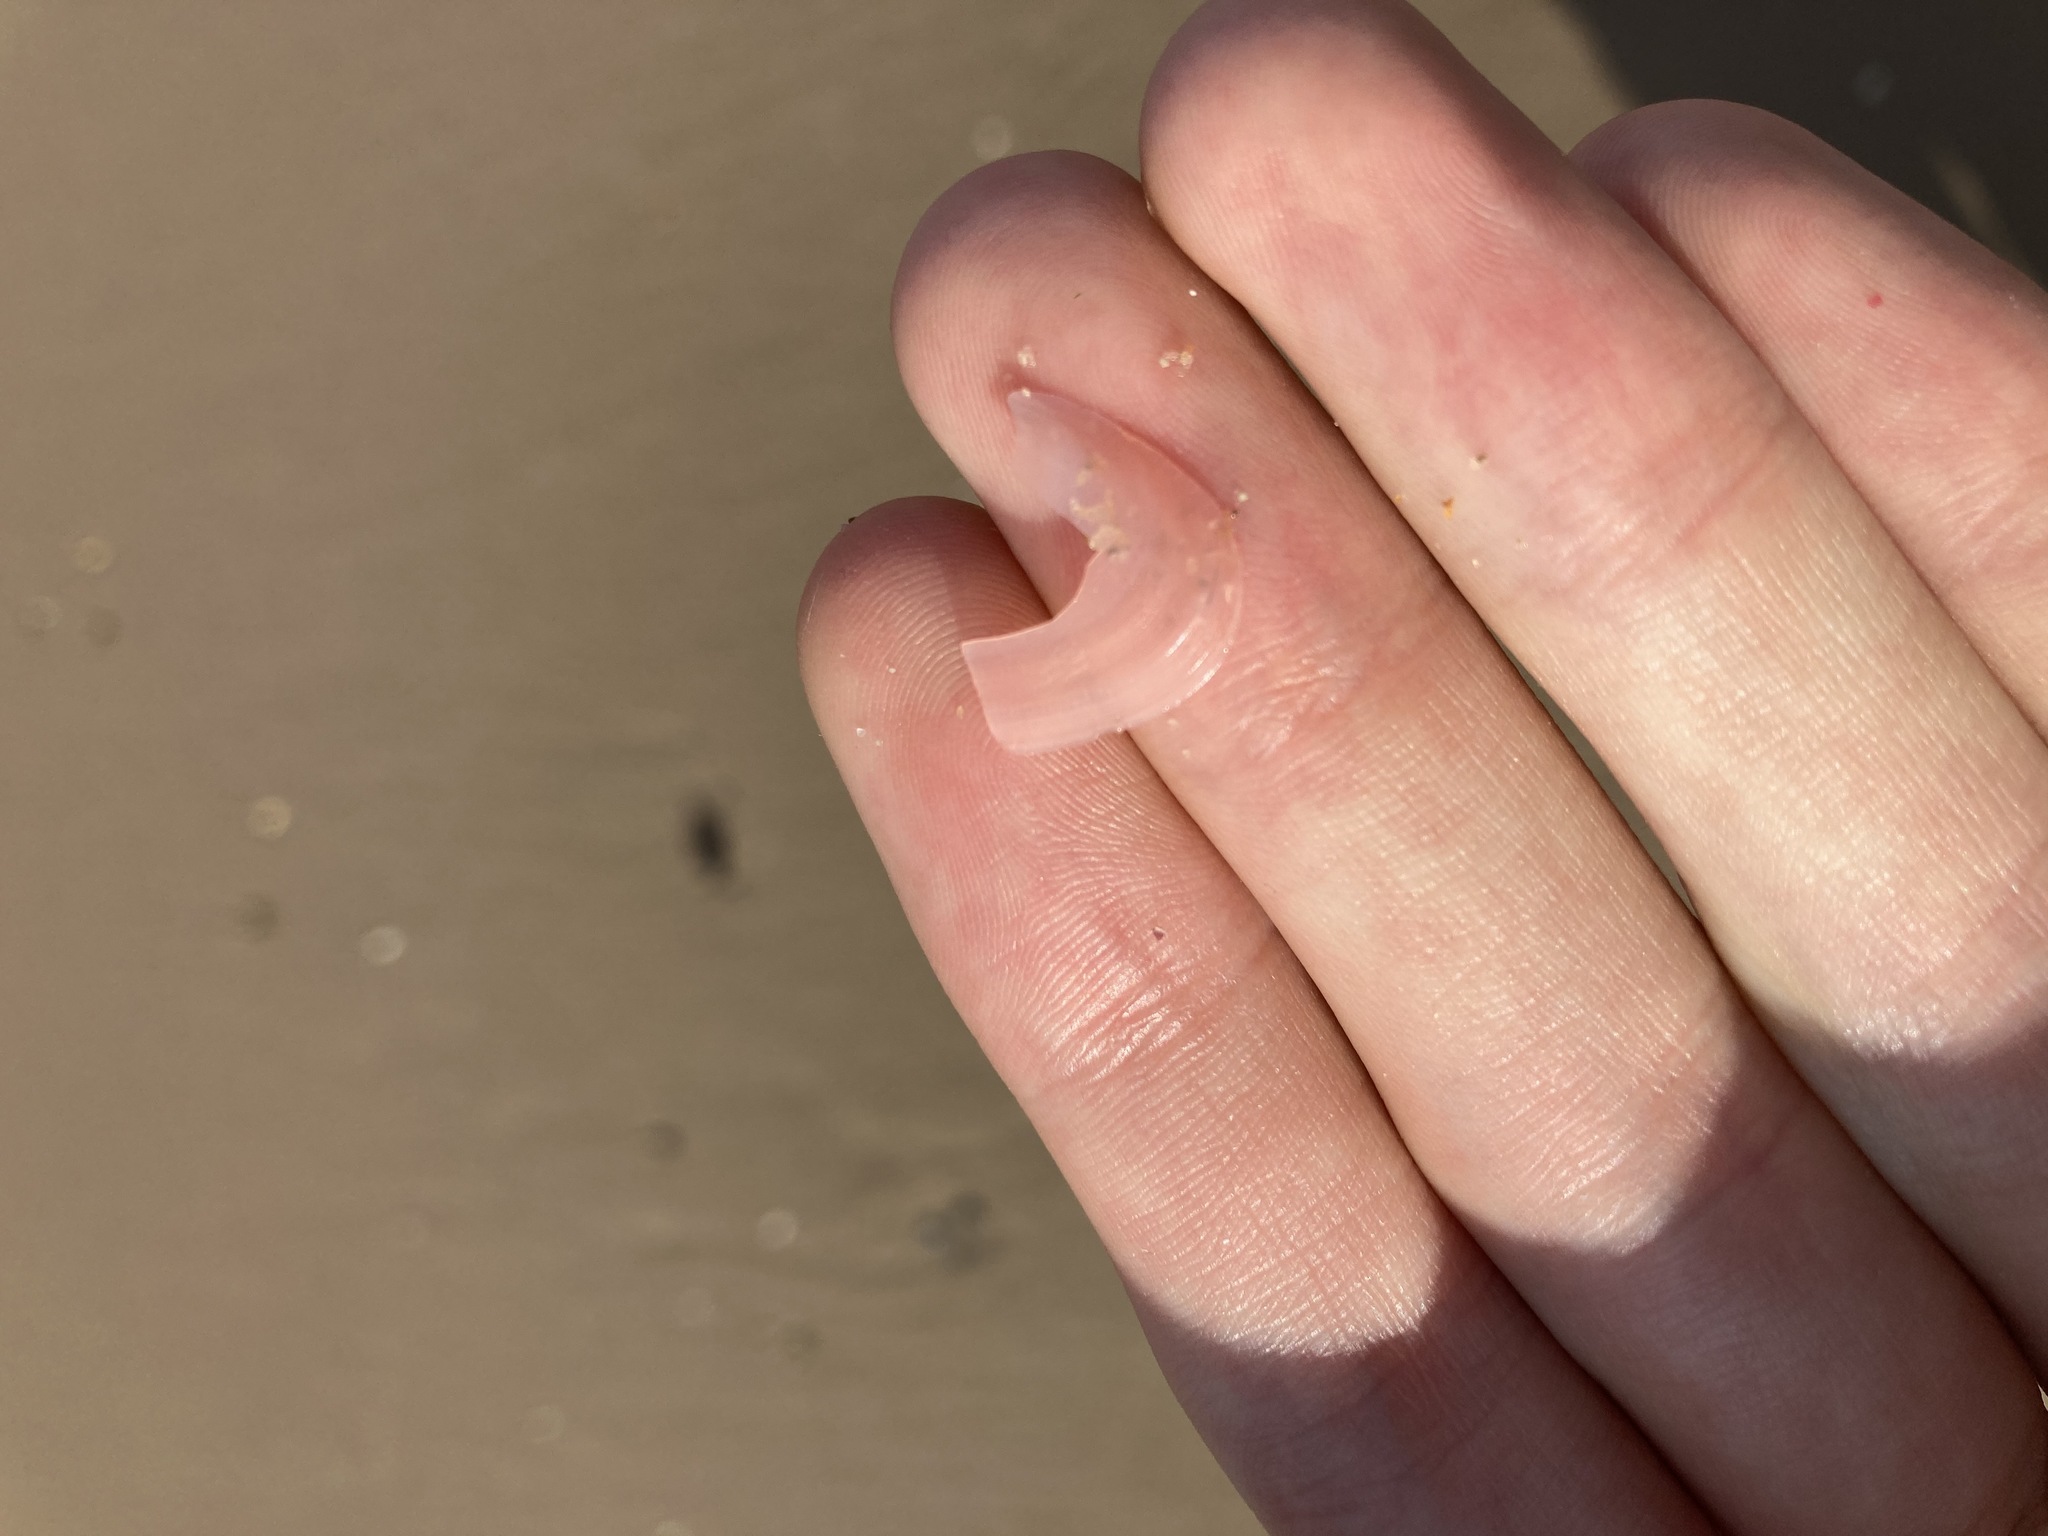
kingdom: Animalia
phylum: Mollusca
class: Bivalvia
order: Cardiida
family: Tellinidae
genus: Tellinota
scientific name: Tellinota albinella
